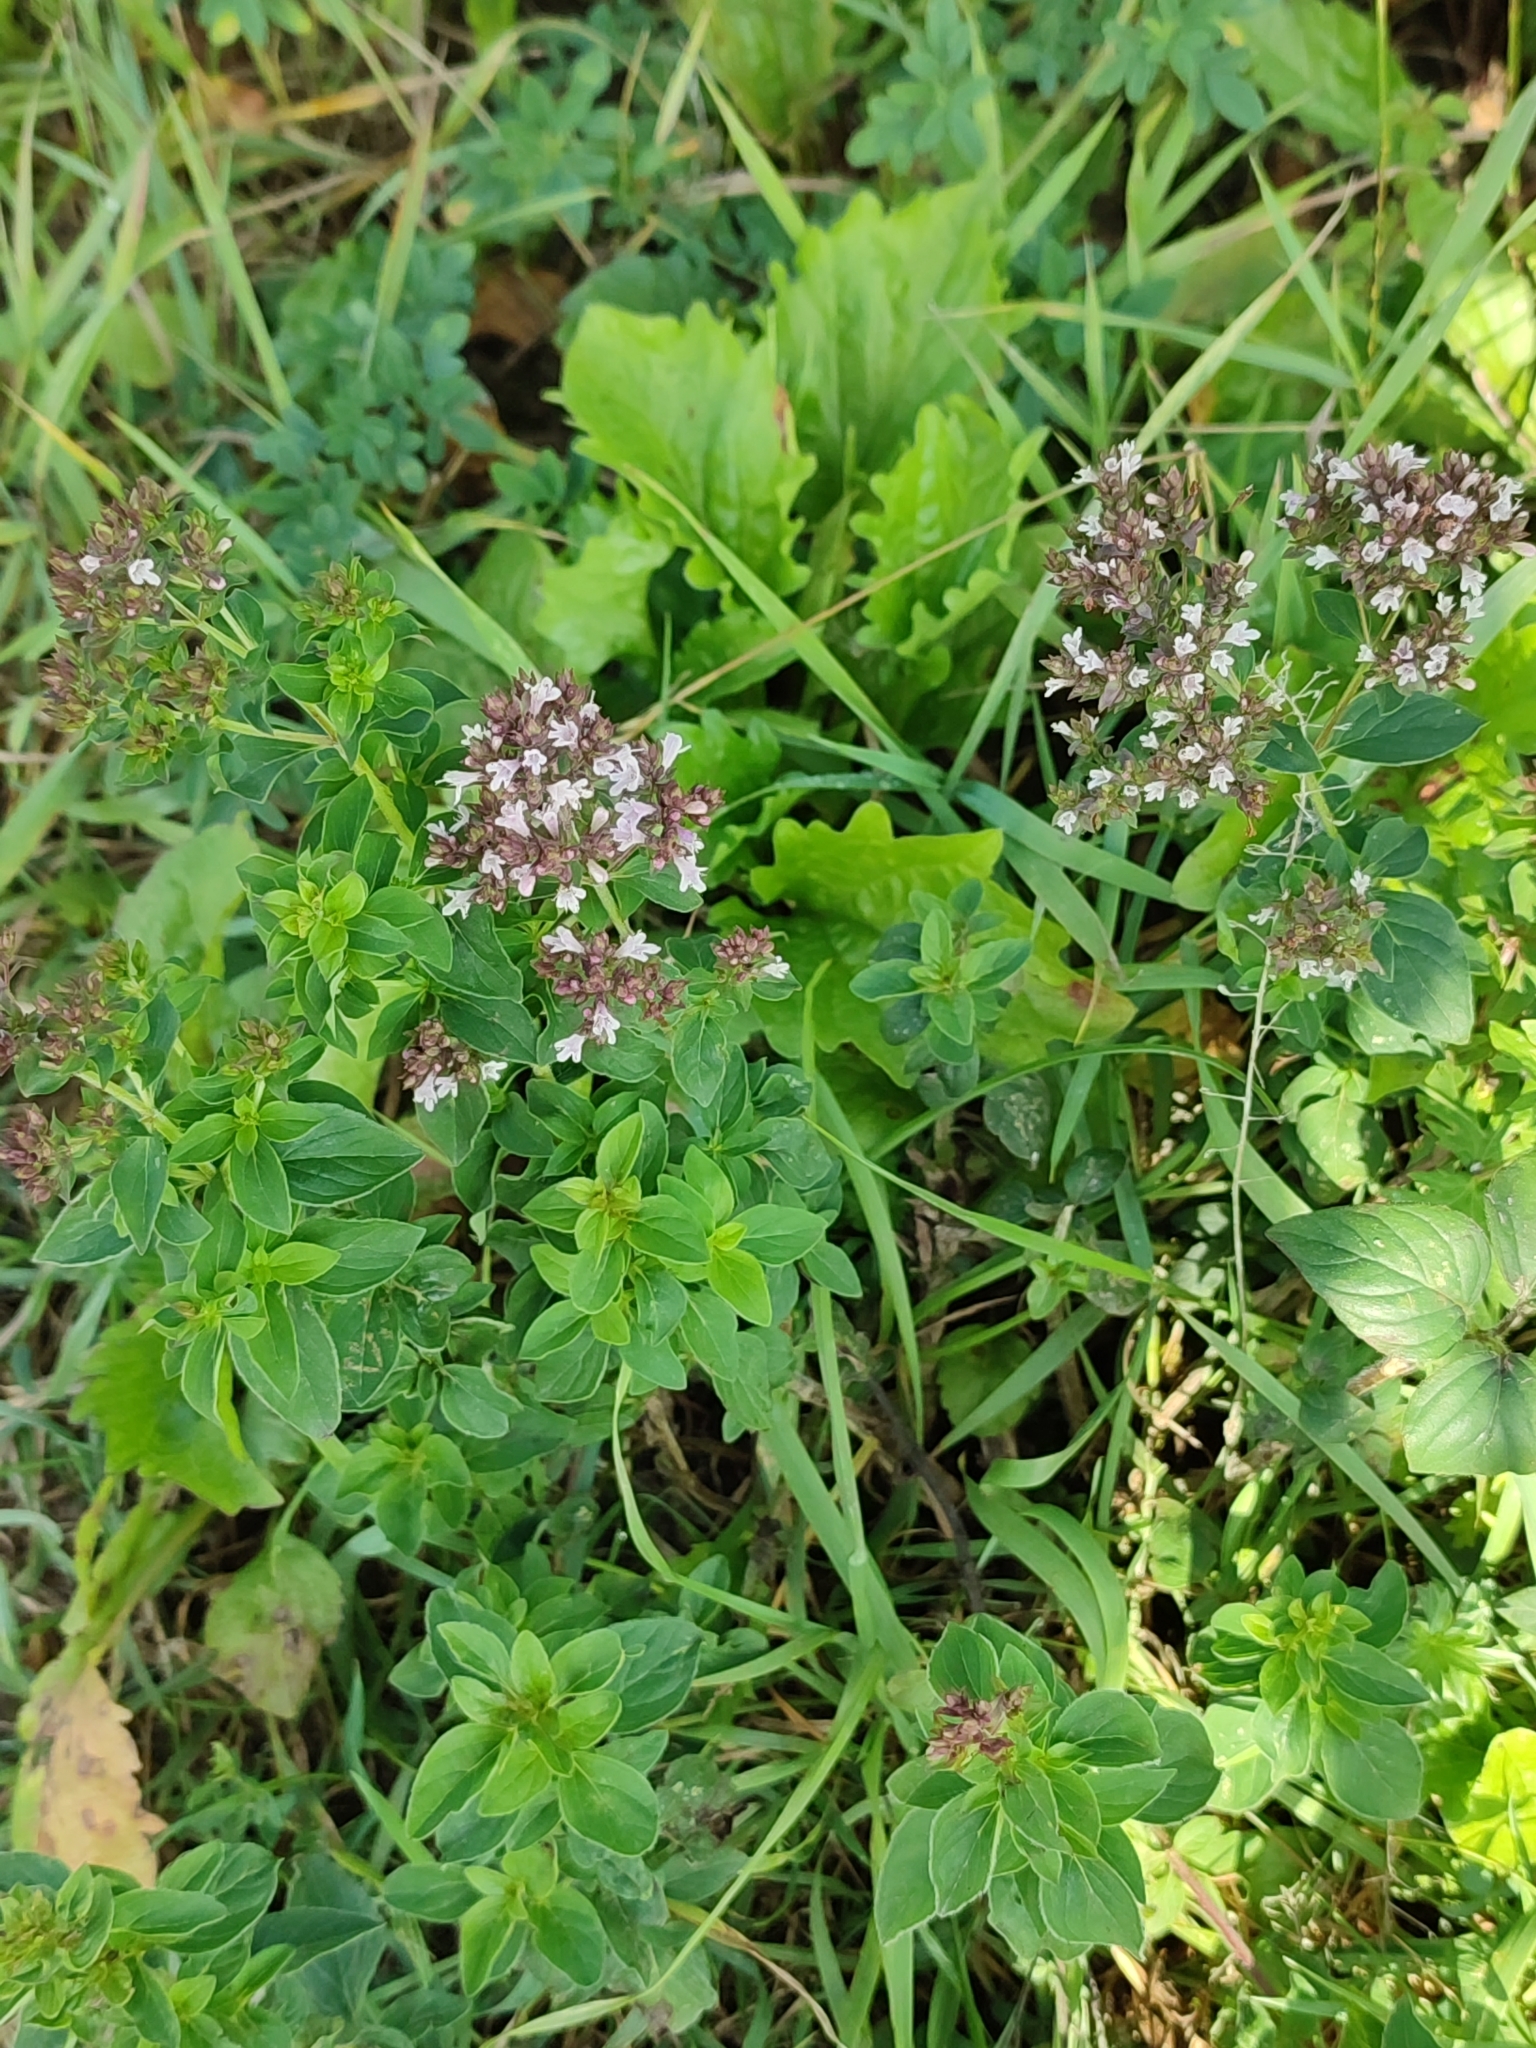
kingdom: Plantae
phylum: Tracheophyta
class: Magnoliopsida
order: Lamiales
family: Lamiaceae
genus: Origanum
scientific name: Origanum vulgare
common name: Wild marjoram
